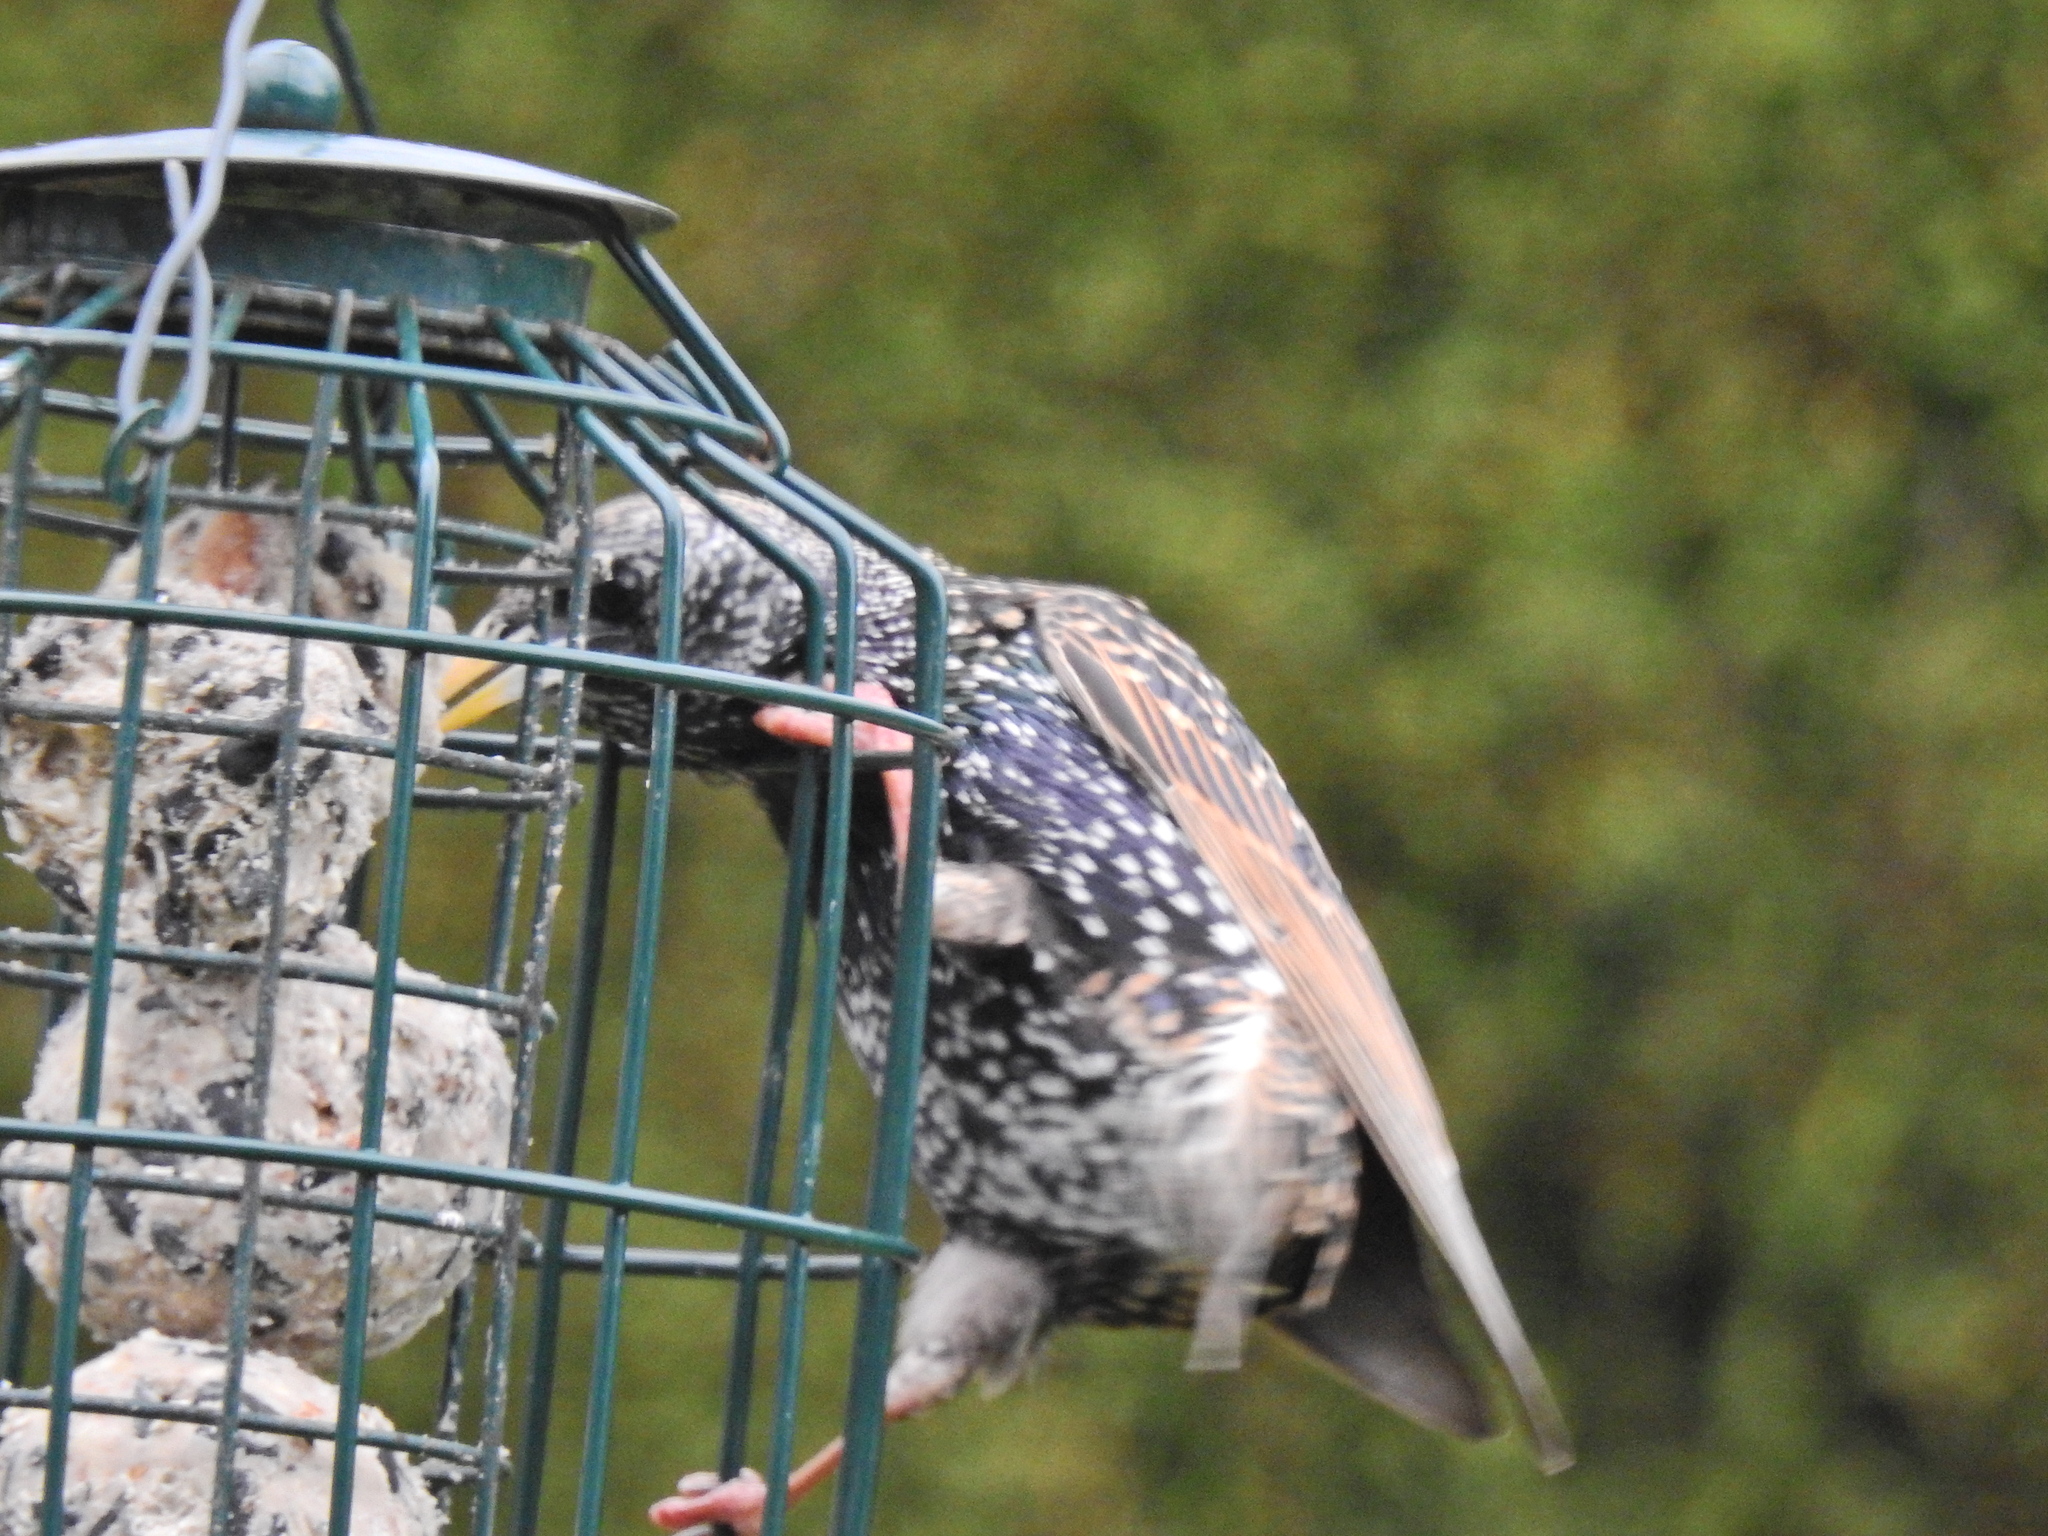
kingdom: Animalia
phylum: Chordata
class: Aves
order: Passeriformes
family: Sturnidae
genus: Sturnus
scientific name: Sturnus vulgaris
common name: Common starling
